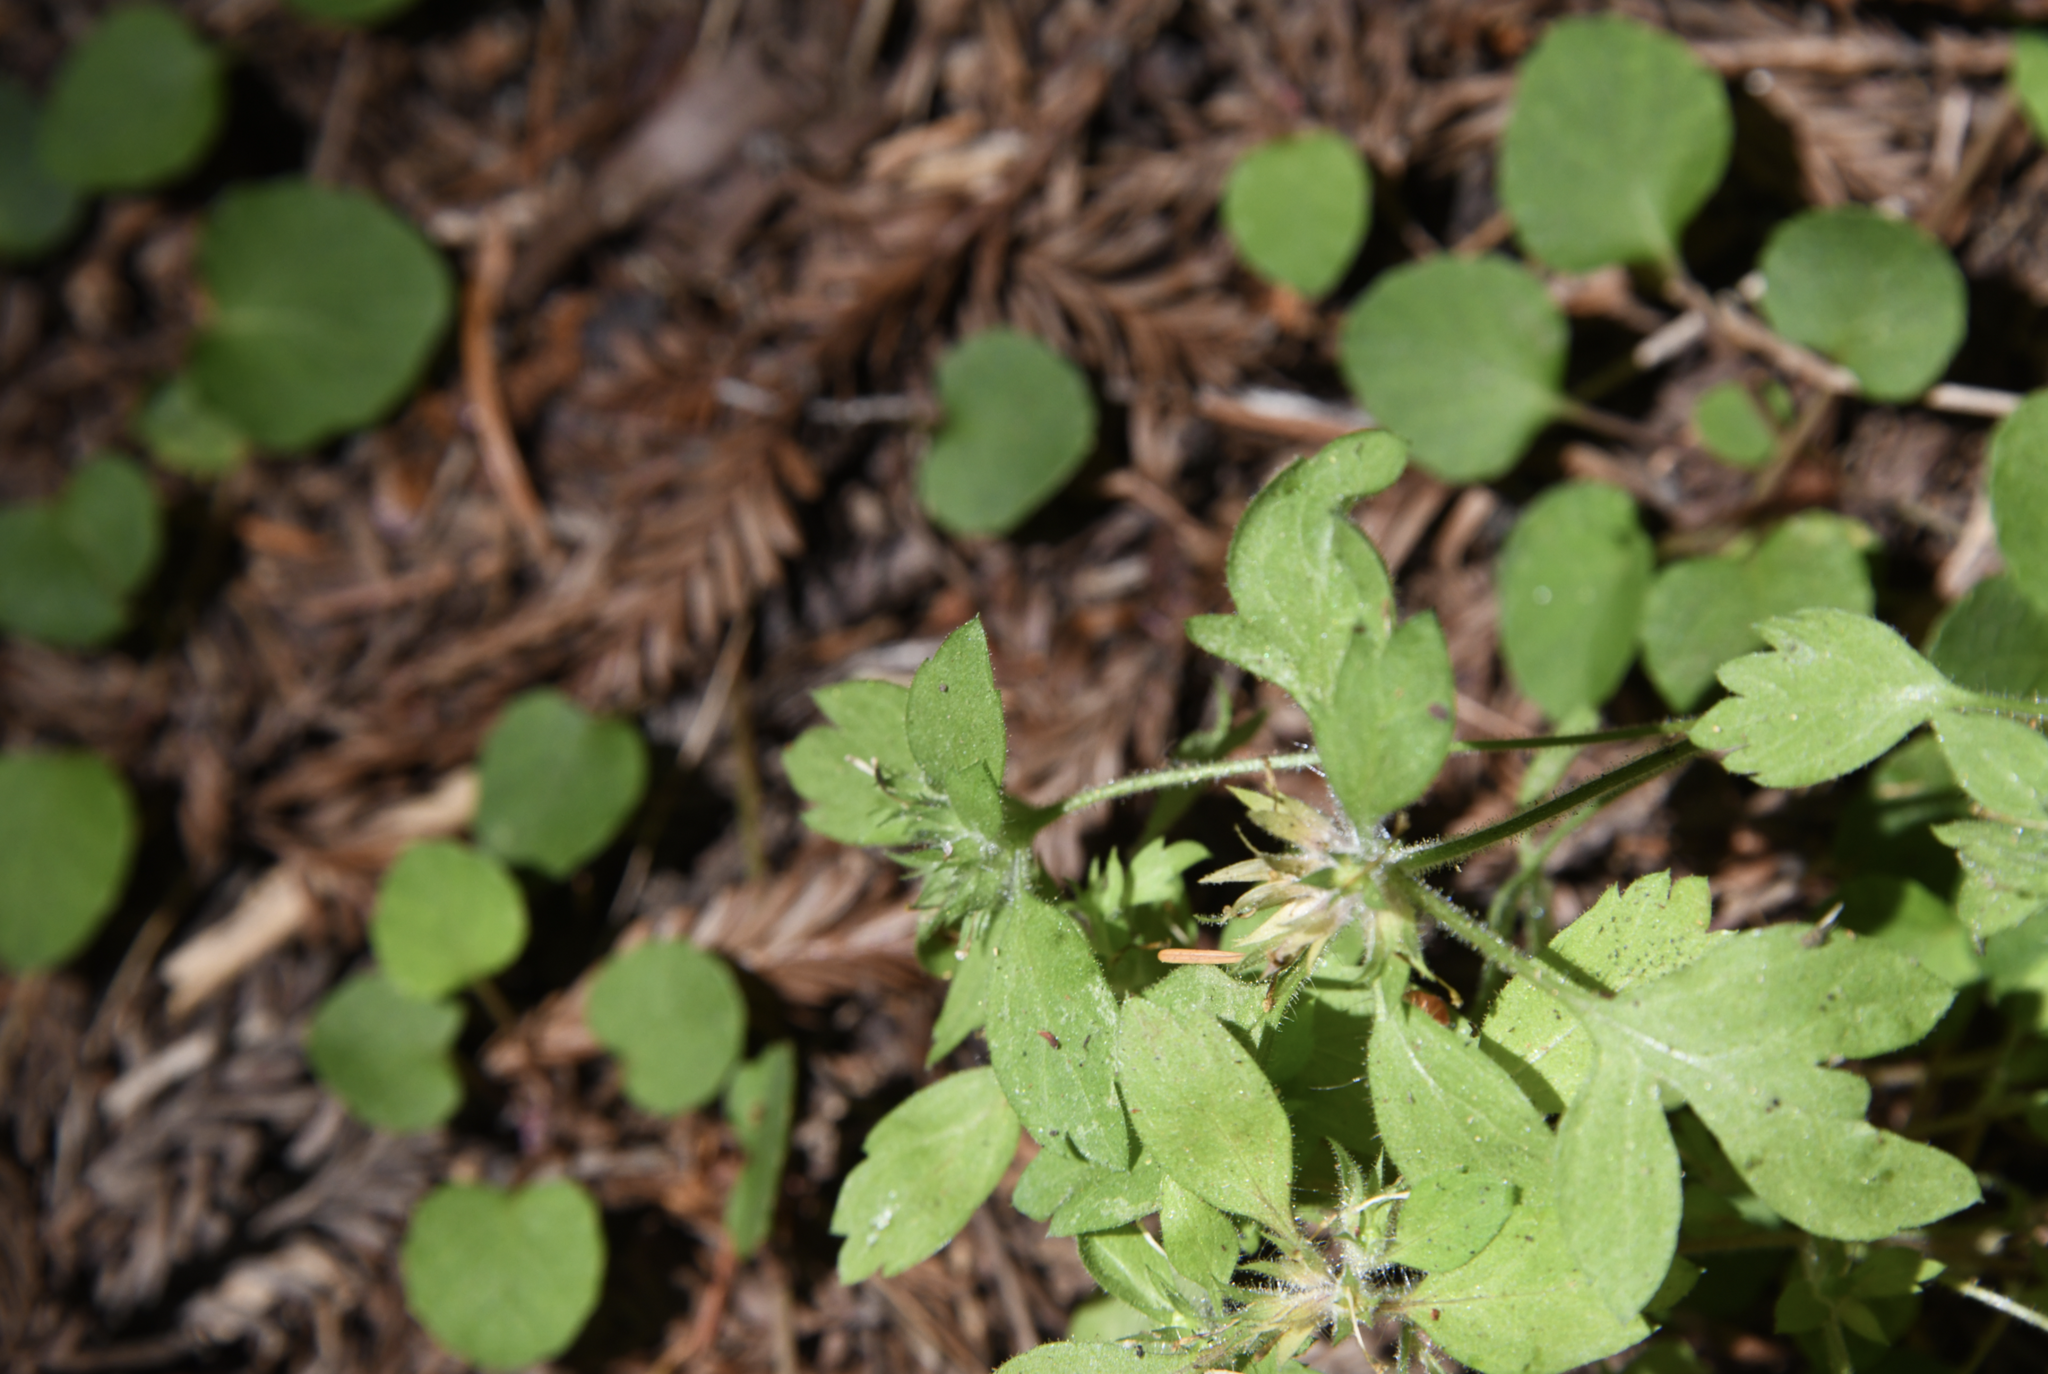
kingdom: Plantae
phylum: Tracheophyta
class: Magnoliopsida
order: Ericales
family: Polemoniaceae
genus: Collomia
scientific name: Collomia heterophylla
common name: Variable-leaved collomia
